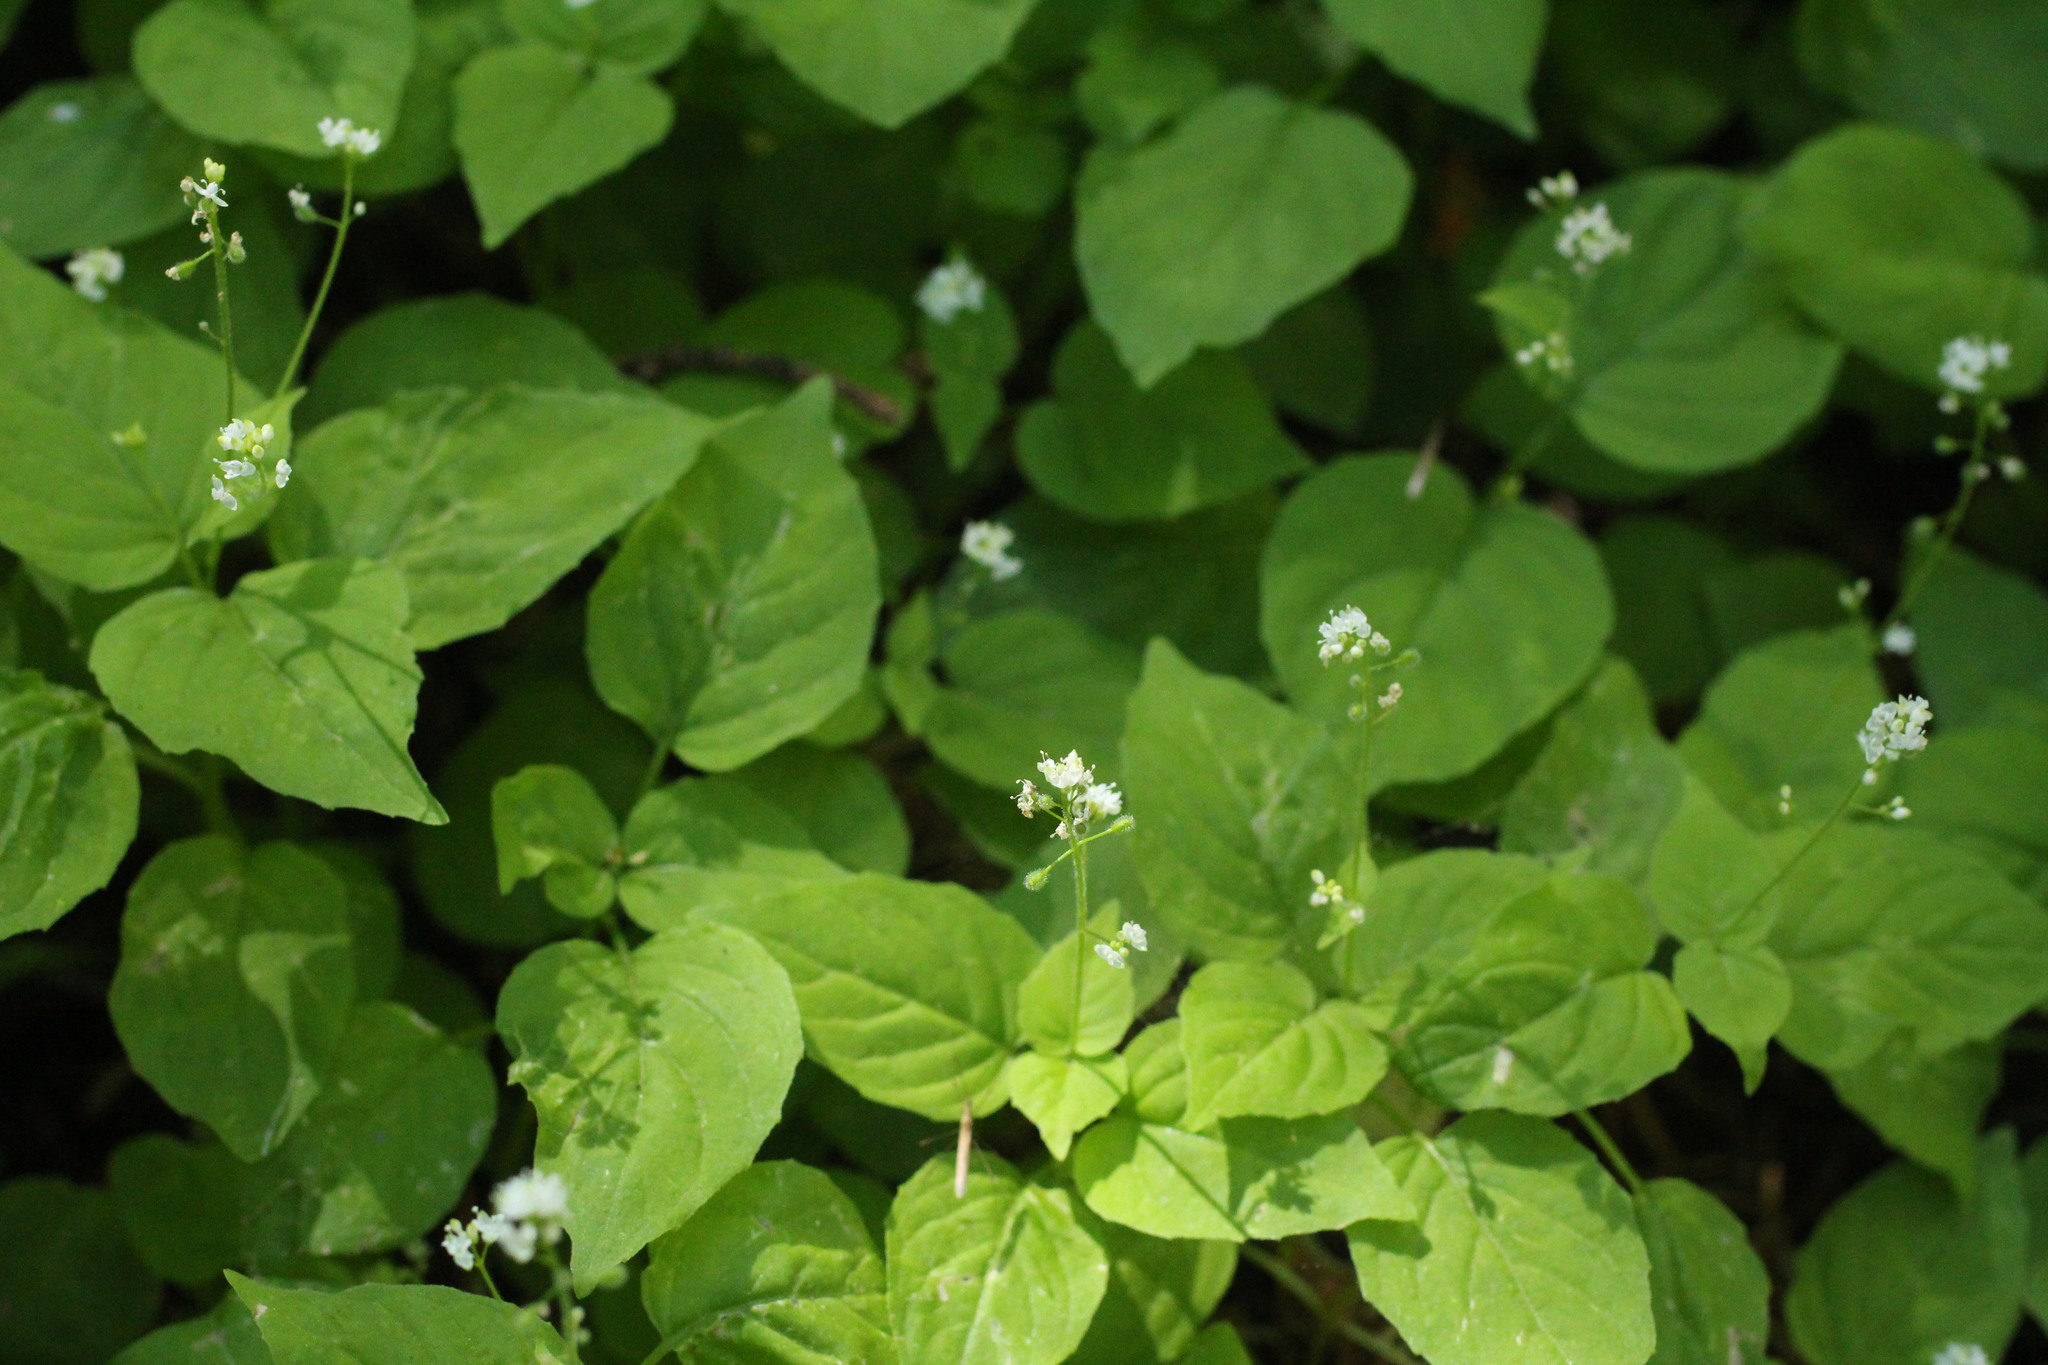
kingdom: Plantae
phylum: Tracheophyta
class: Magnoliopsida
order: Myrtales
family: Onagraceae
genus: Circaea
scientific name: Circaea alpina
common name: Alpine enchanter's-nightshade
